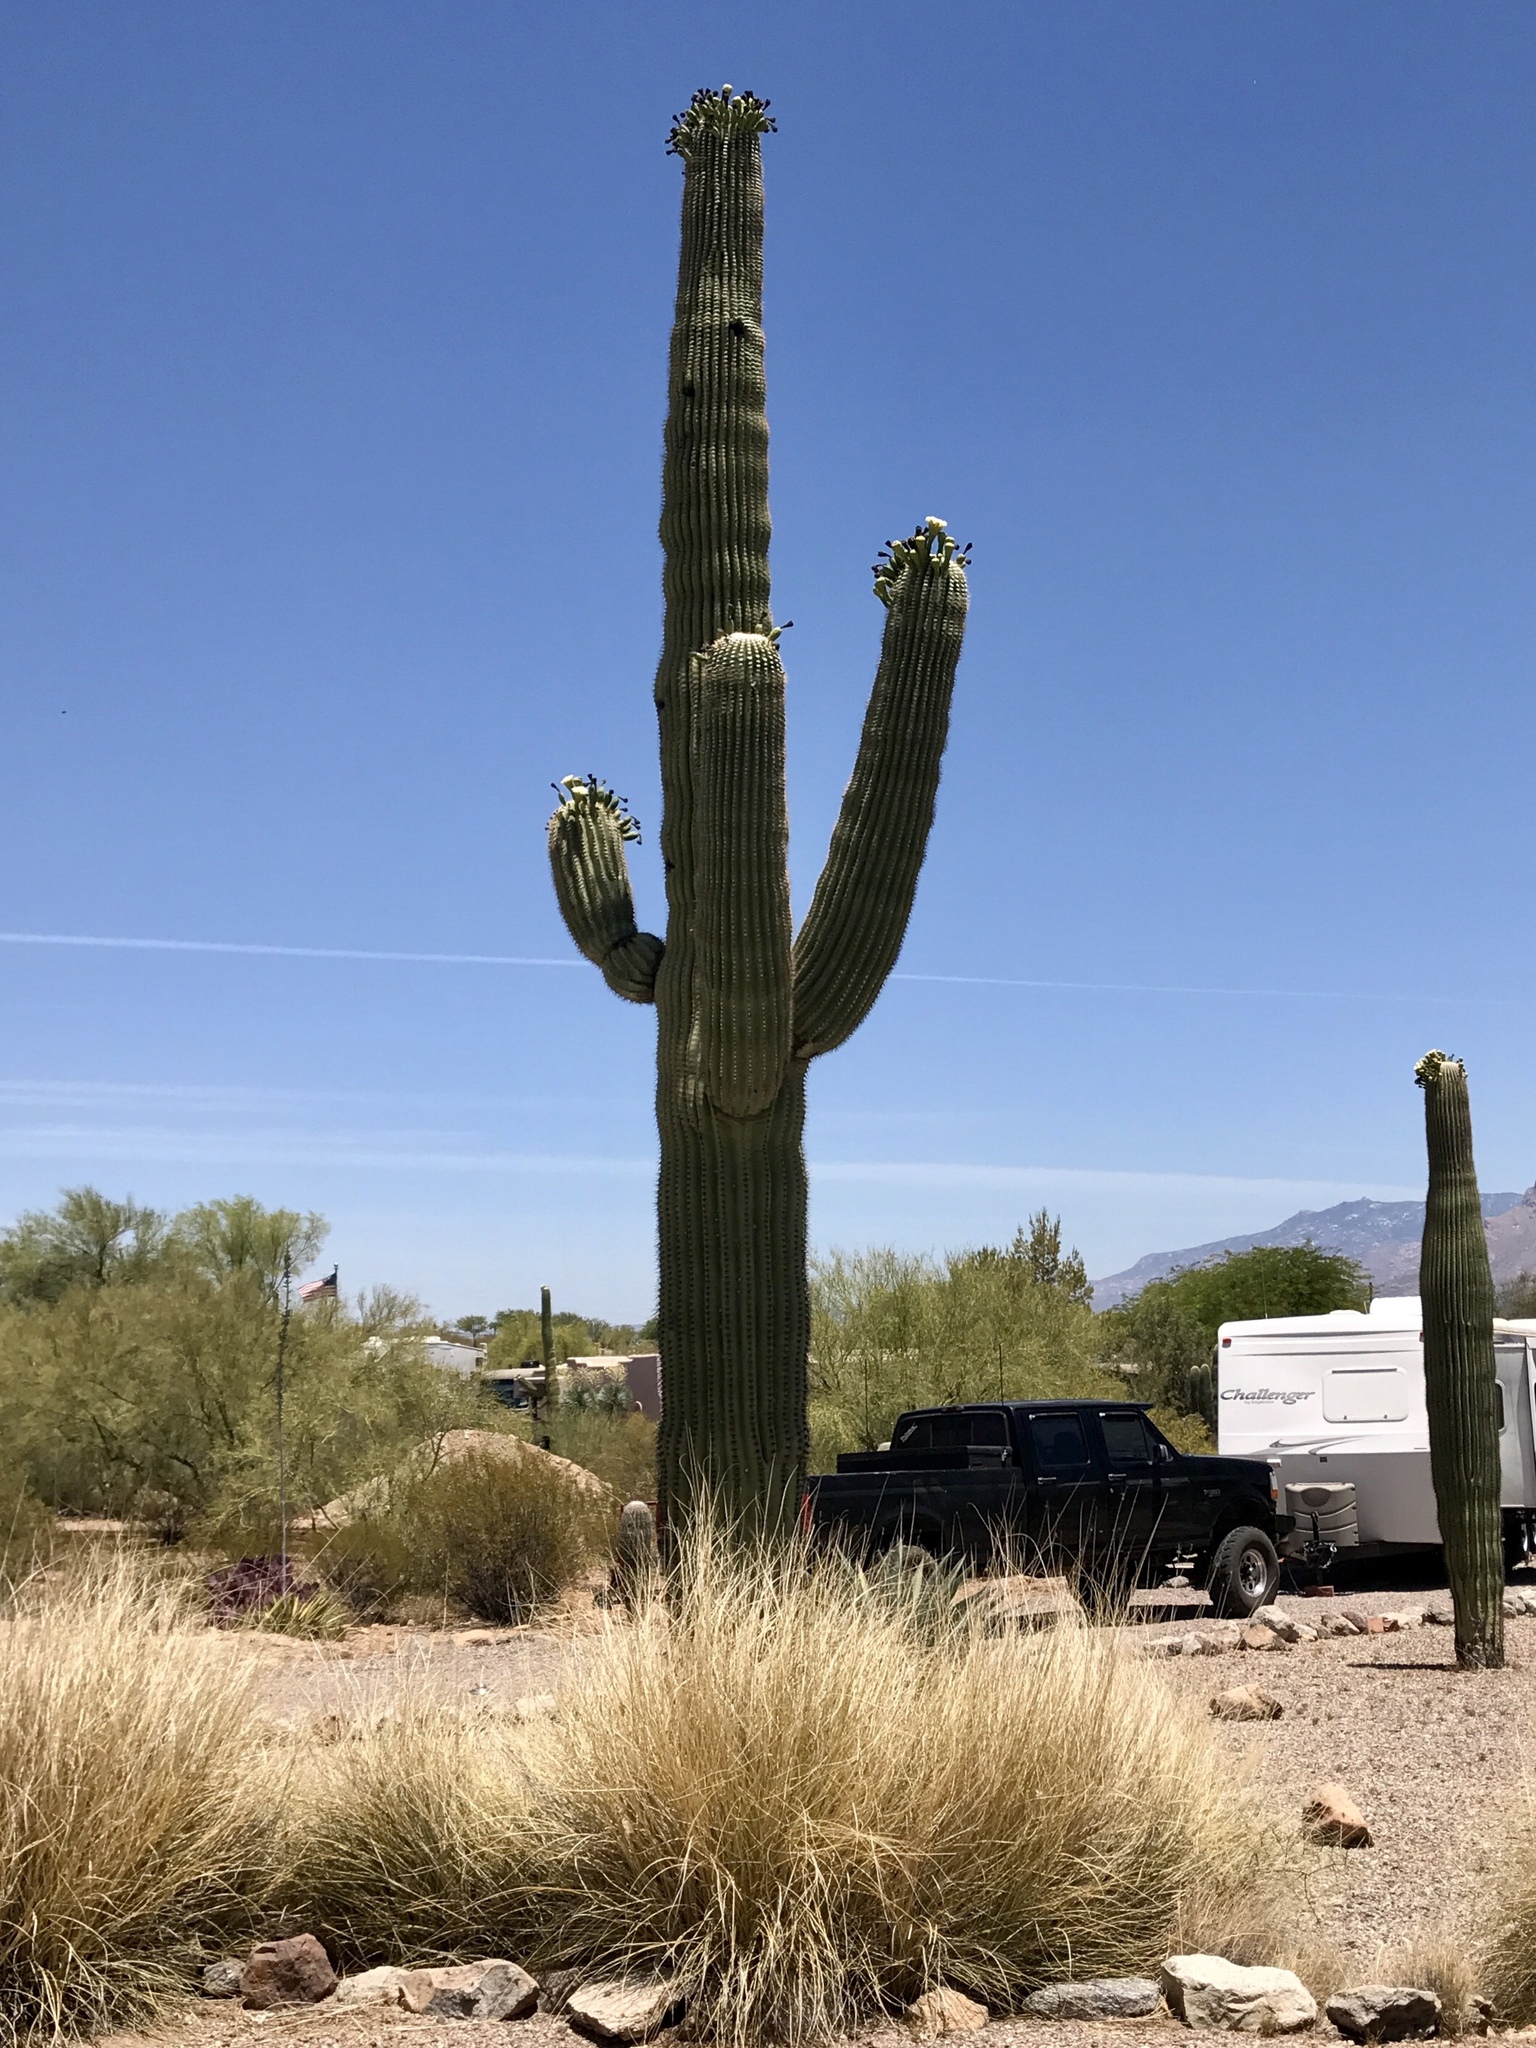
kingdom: Plantae
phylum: Tracheophyta
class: Magnoliopsida
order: Caryophyllales
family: Cactaceae
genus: Carnegiea
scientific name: Carnegiea gigantea
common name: Saguaro
